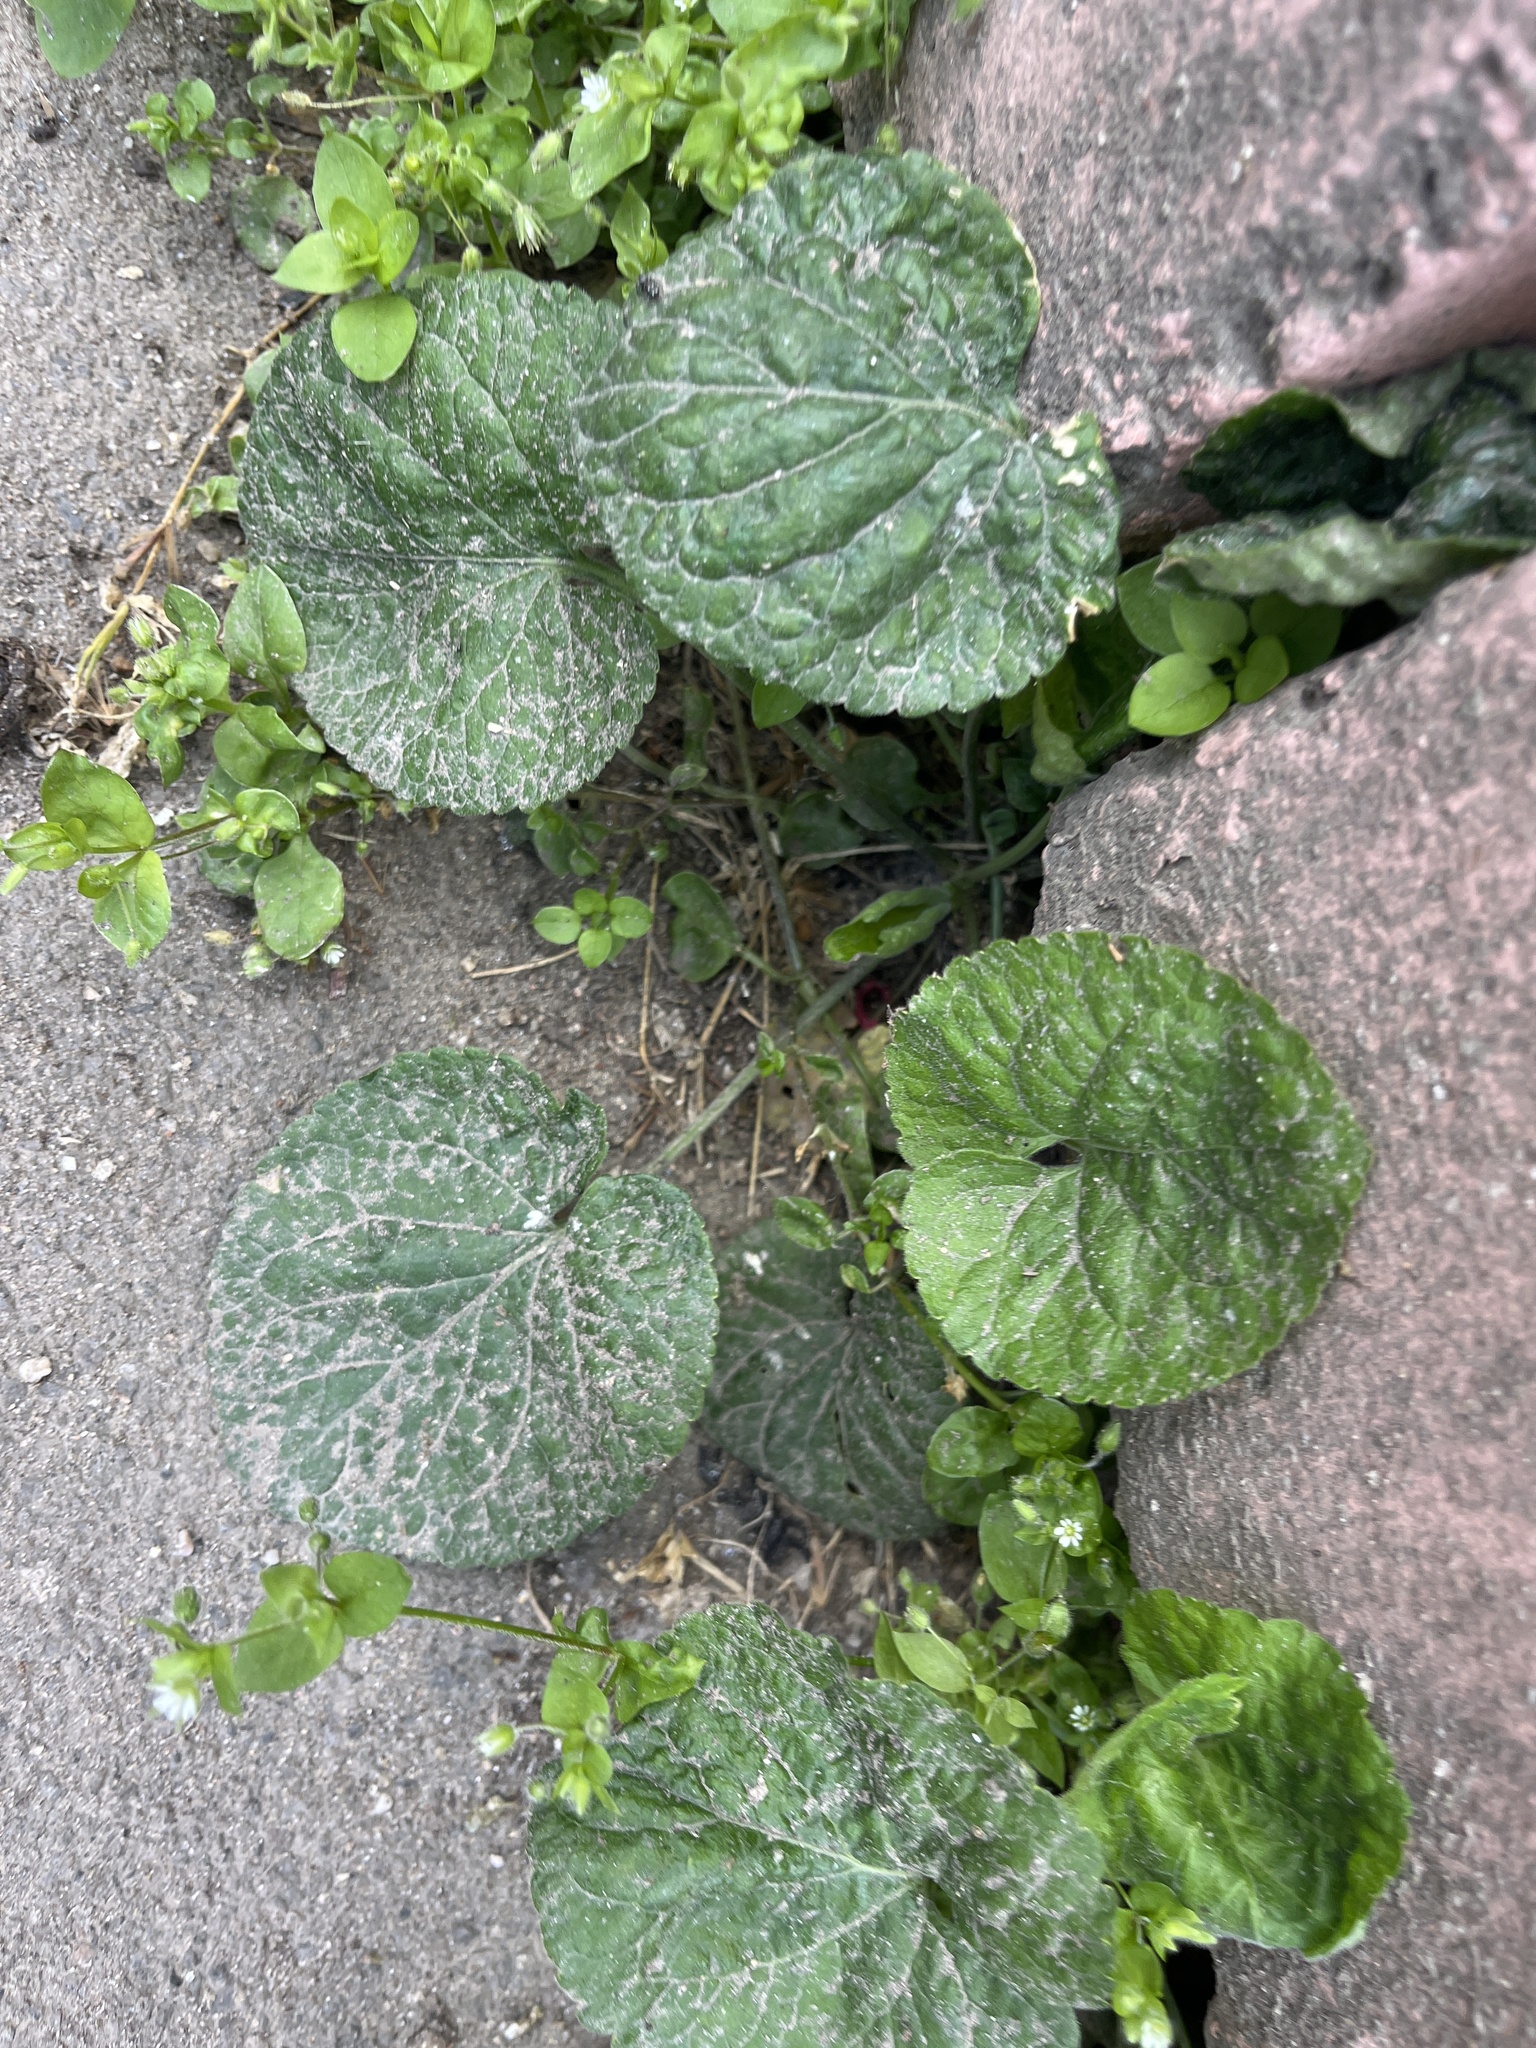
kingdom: Plantae
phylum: Tracheophyta
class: Magnoliopsida
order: Asterales
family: Asteraceae
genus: Tussilago
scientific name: Tussilago farfara
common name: Coltsfoot
